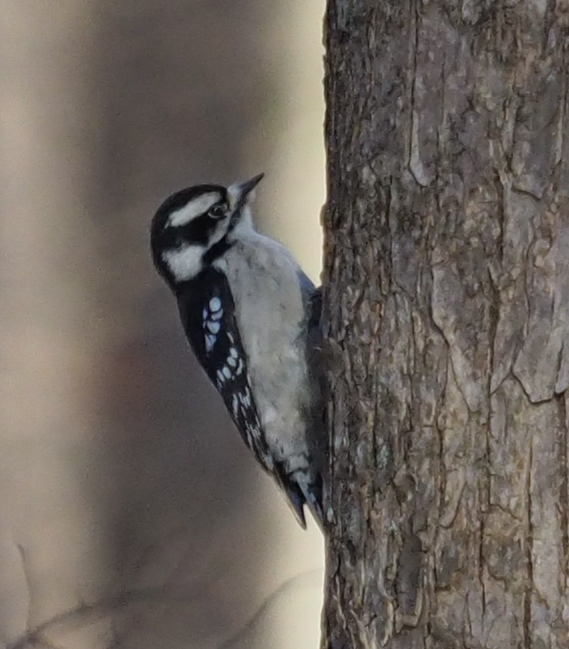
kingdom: Animalia
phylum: Chordata
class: Aves
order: Piciformes
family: Picidae
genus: Dryobates
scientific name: Dryobates pubescens
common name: Downy woodpecker
